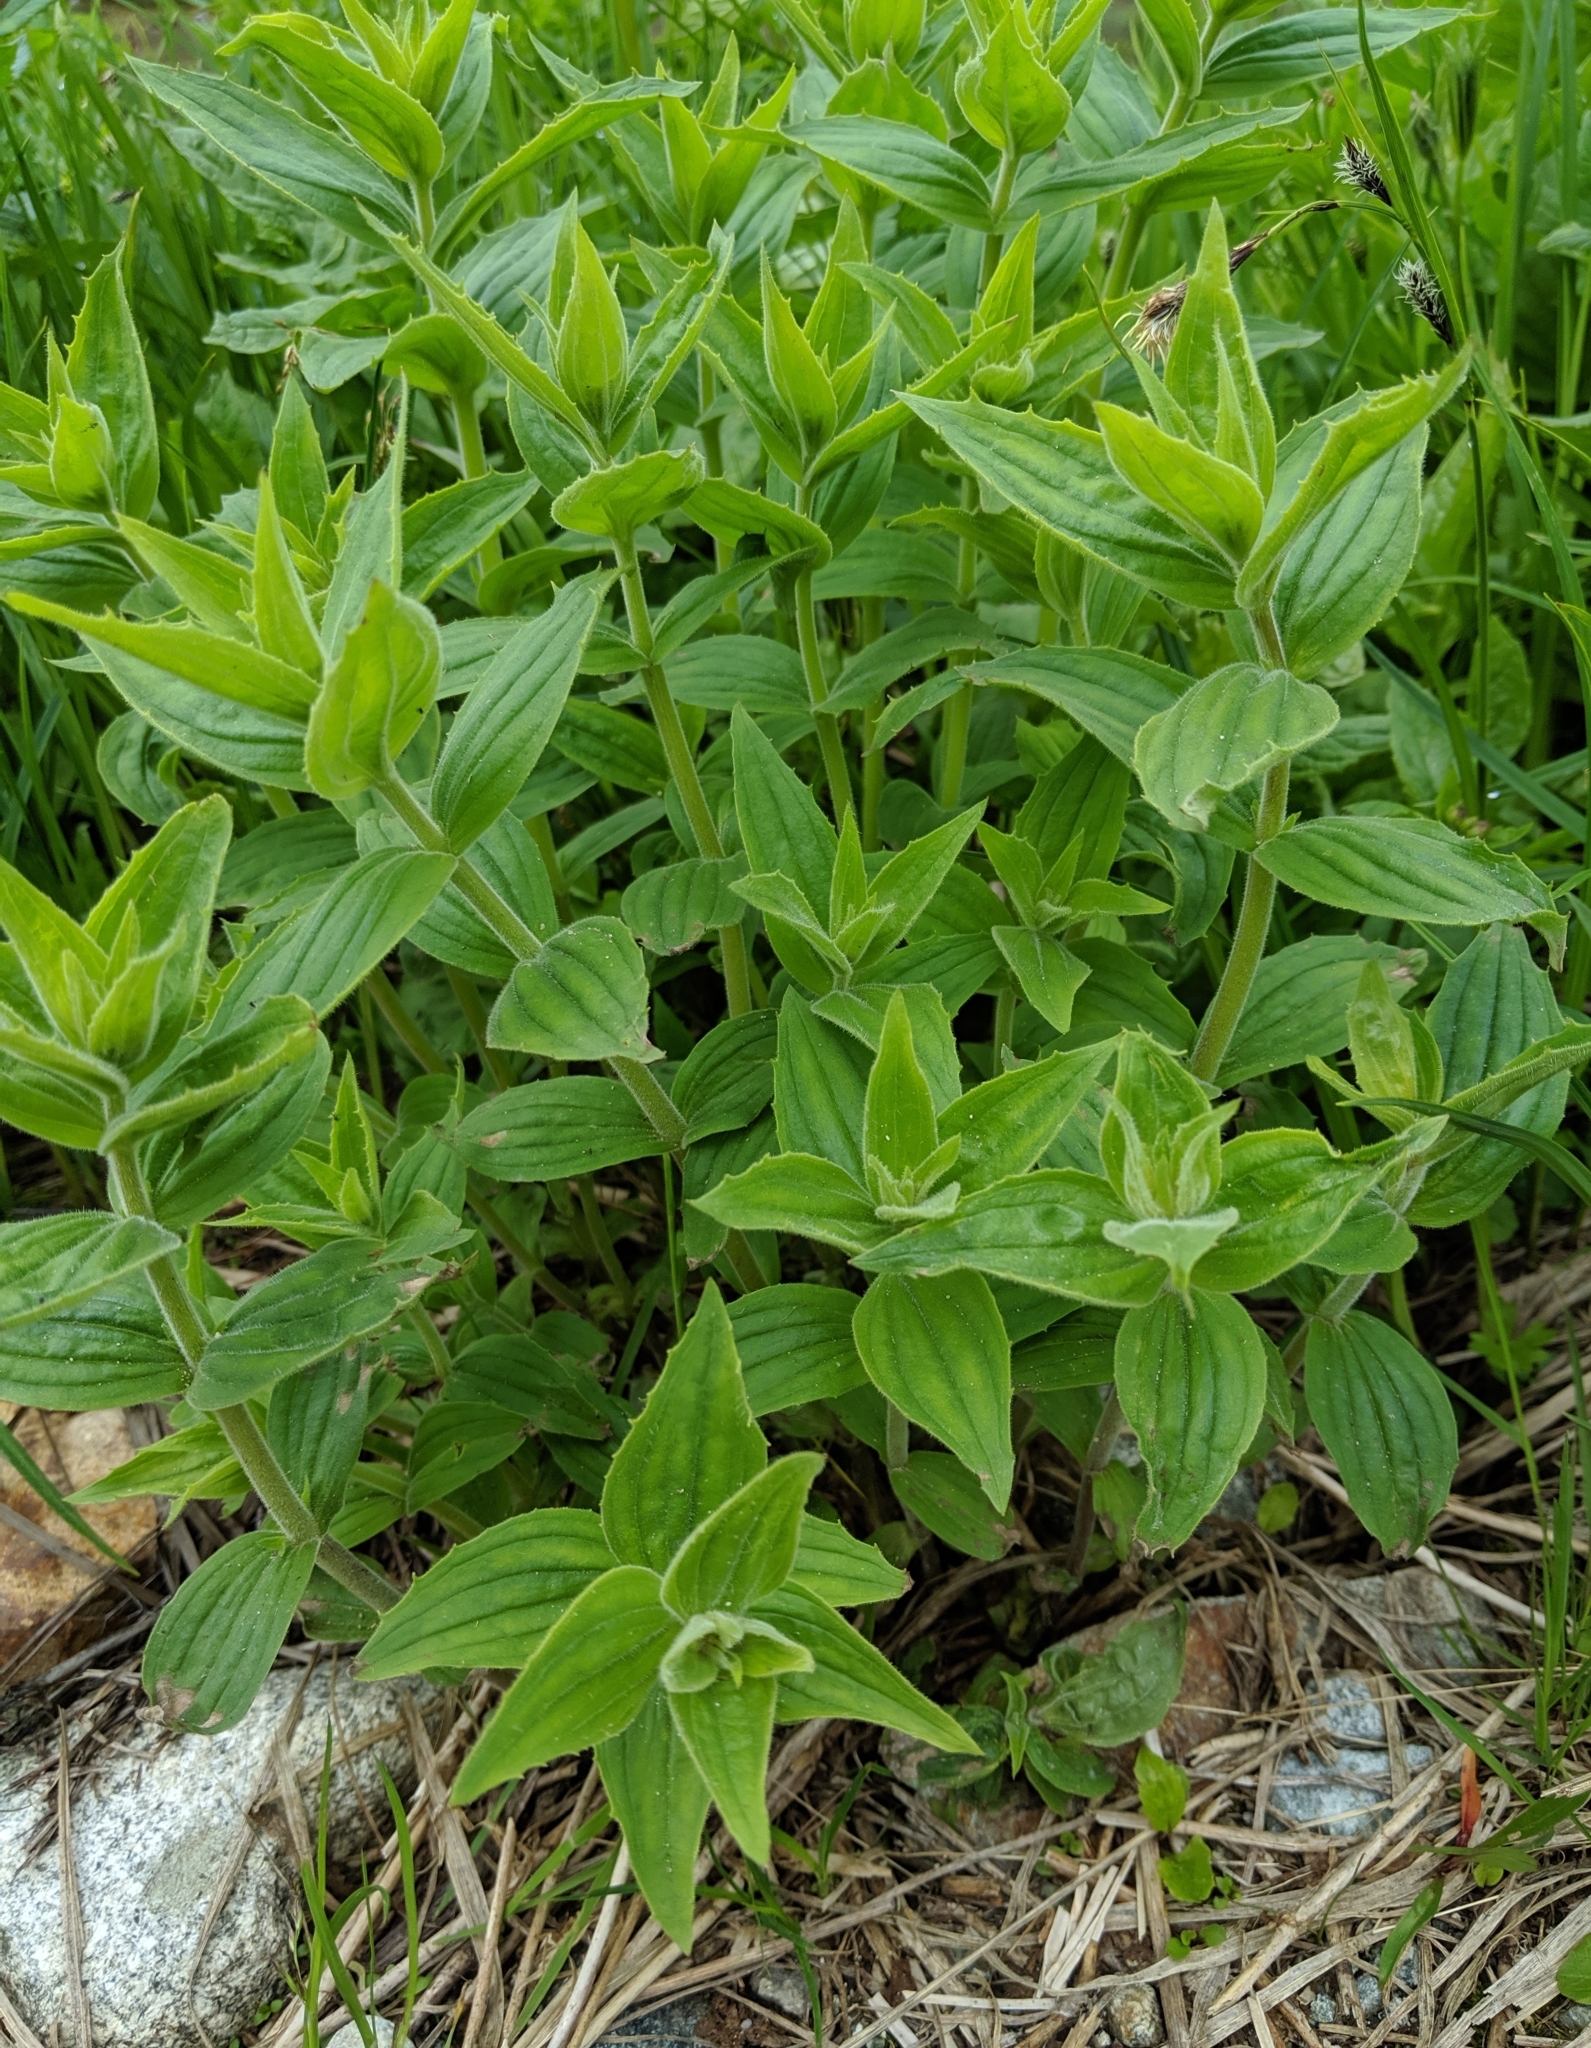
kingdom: Plantae
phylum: Tracheophyta
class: Magnoliopsida
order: Lamiales
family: Phrymaceae
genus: Erythranthe
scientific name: Erythranthe lewisii
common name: Lewis's monkey-flower
